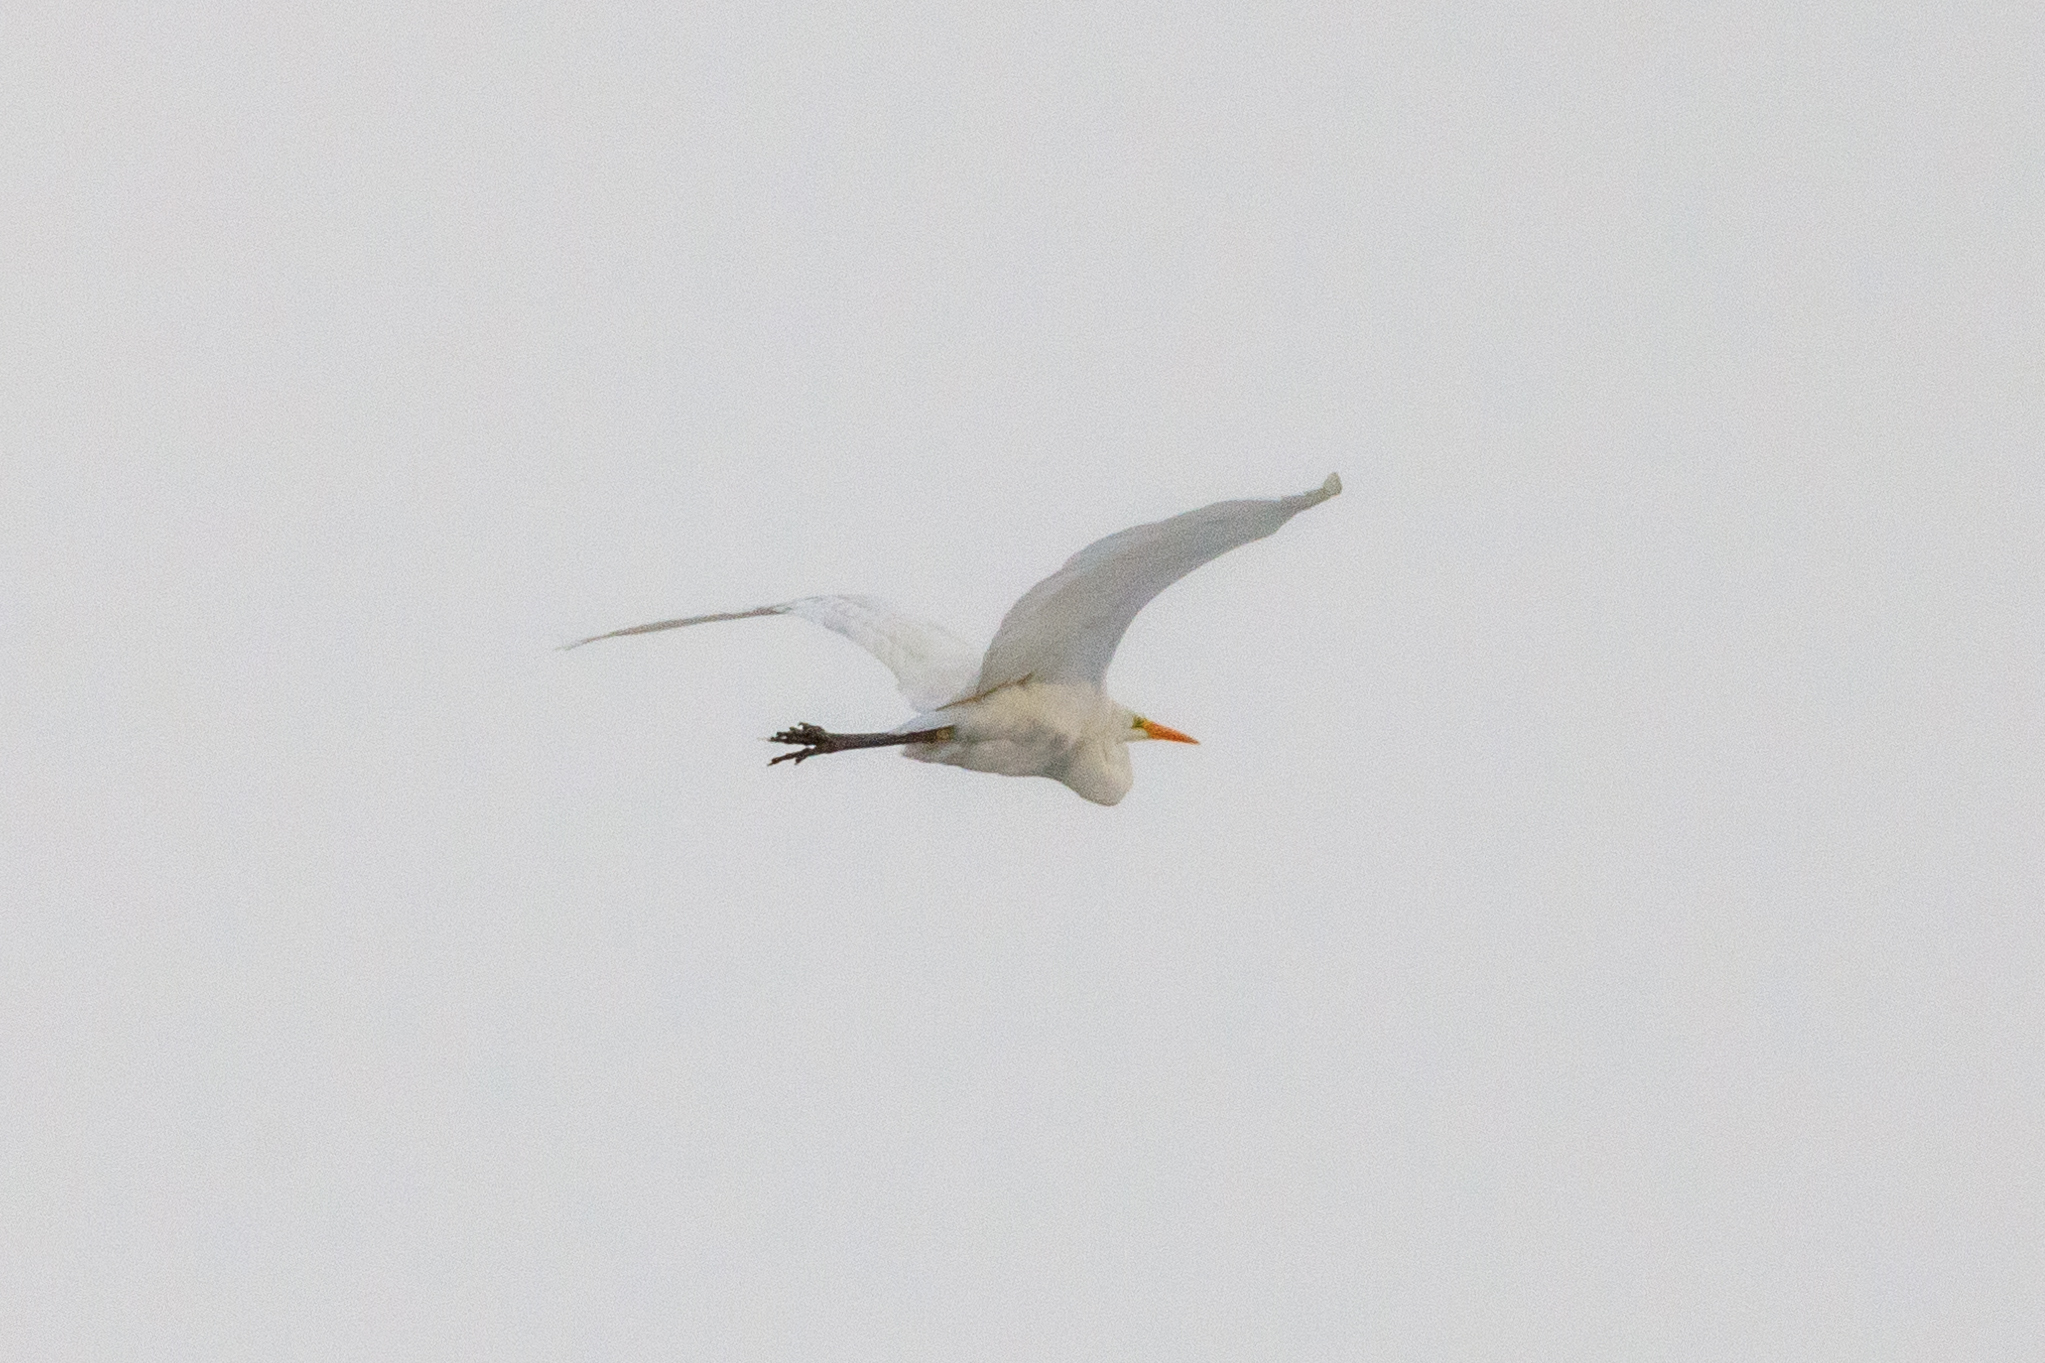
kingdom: Animalia
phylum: Chordata
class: Aves
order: Pelecaniformes
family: Ardeidae
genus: Ardea
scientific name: Ardea alba
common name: Great egret
